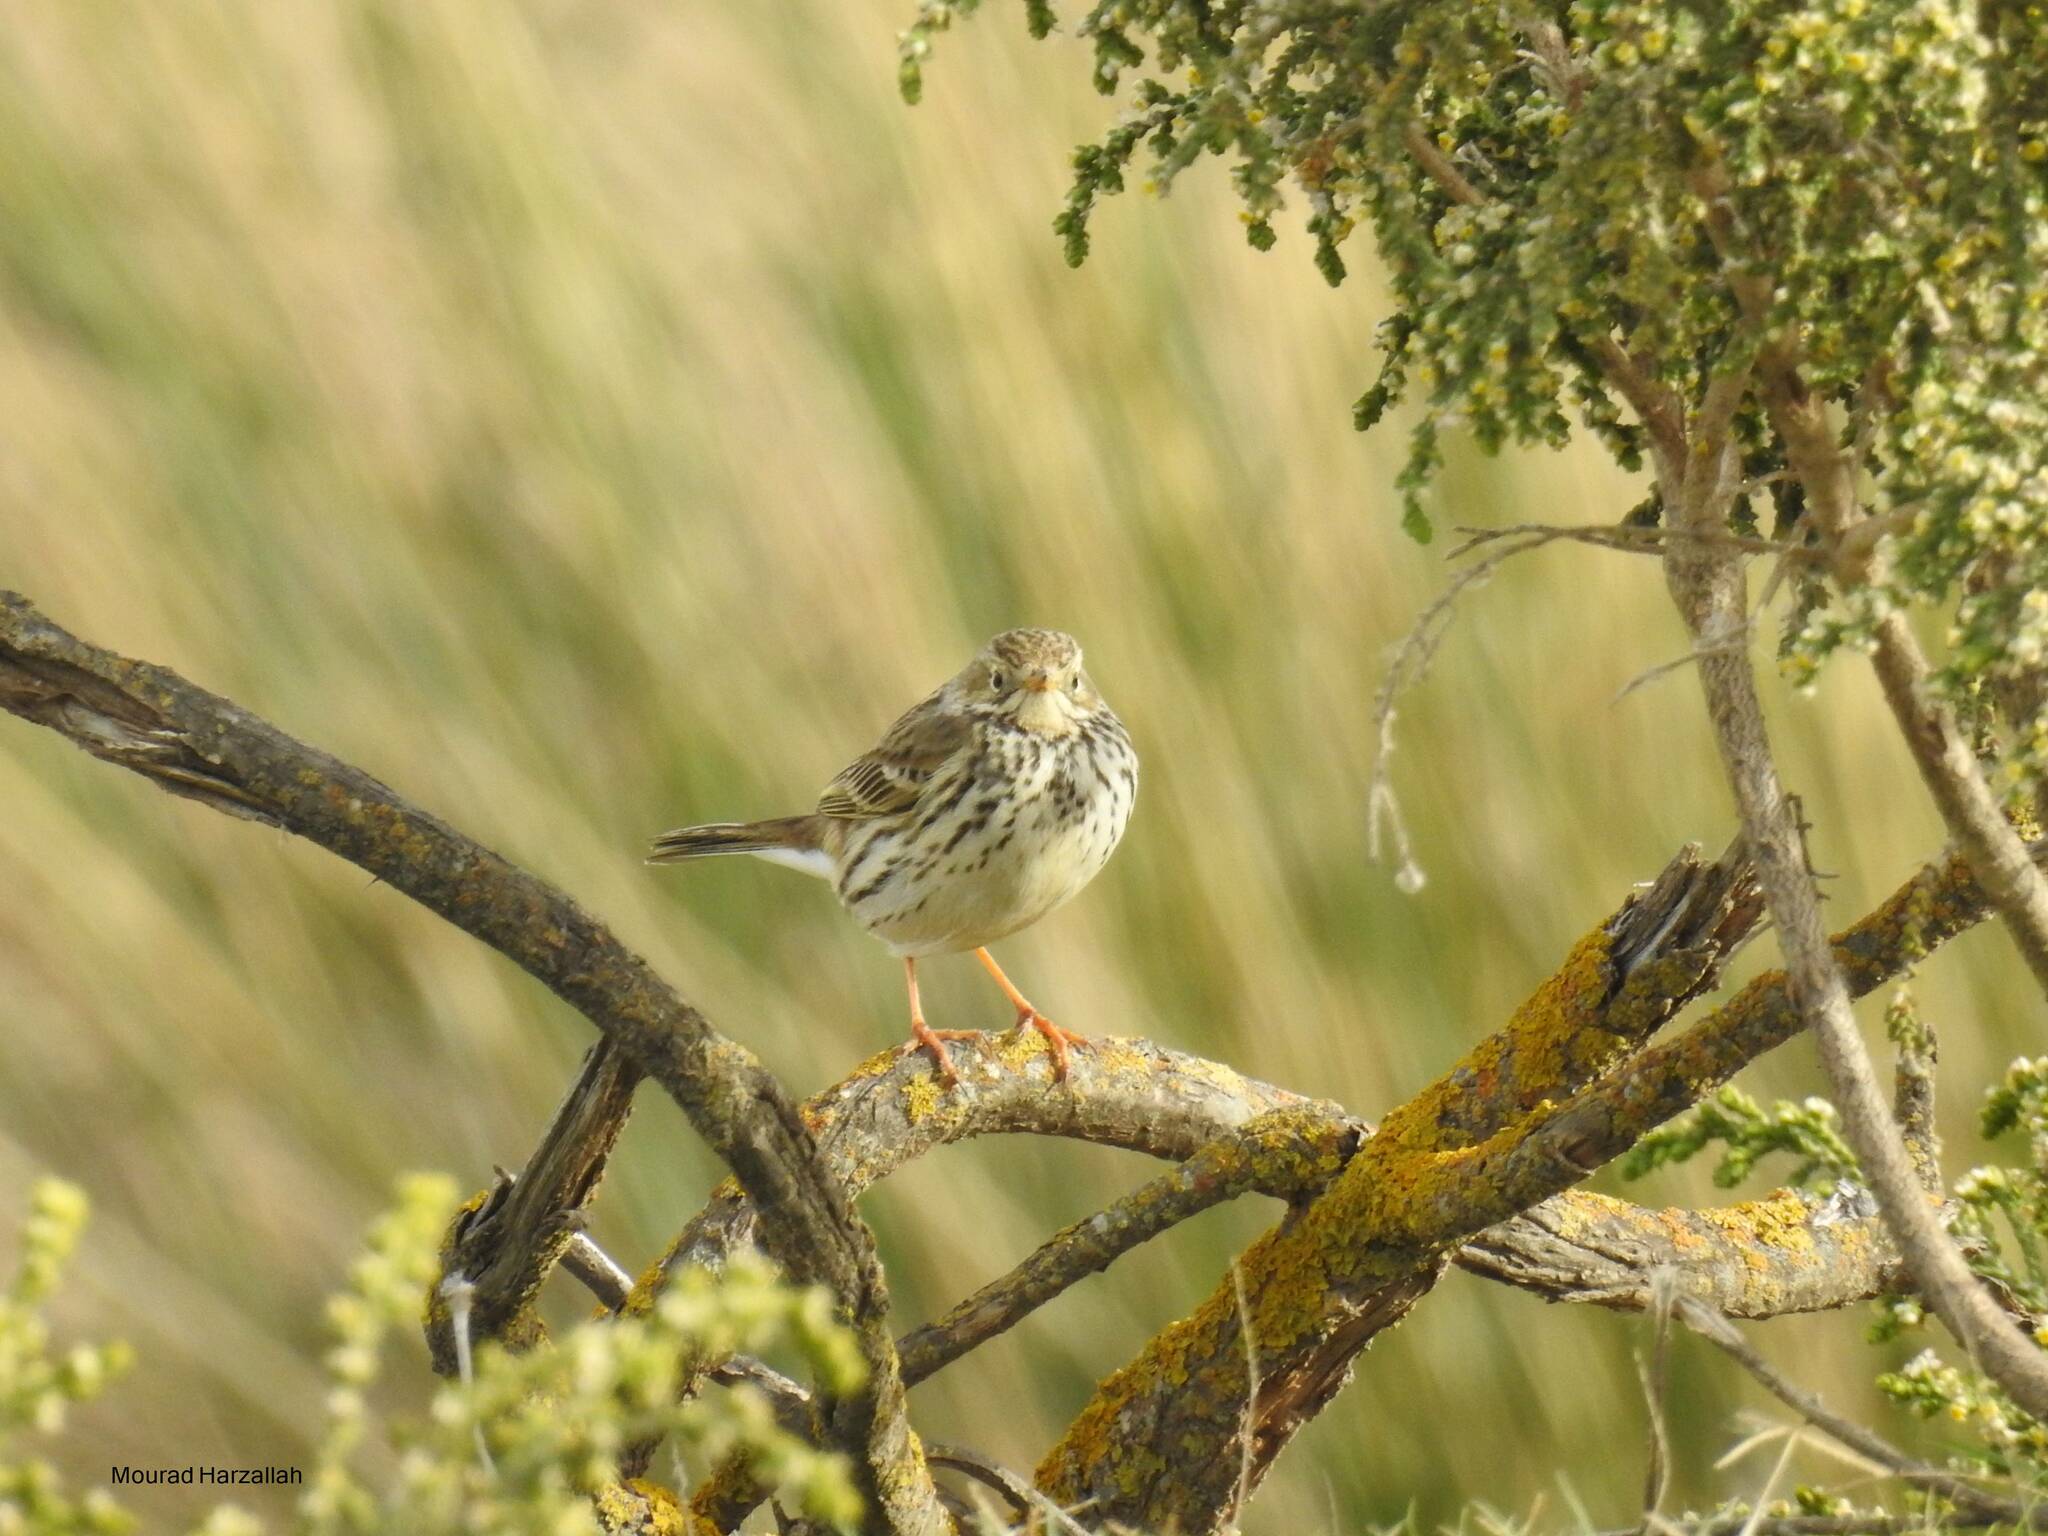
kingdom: Animalia
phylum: Chordata
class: Aves
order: Passeriformes
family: Motacillidae
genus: Anthus
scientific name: Anthus pratensis
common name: Meadow pipit
